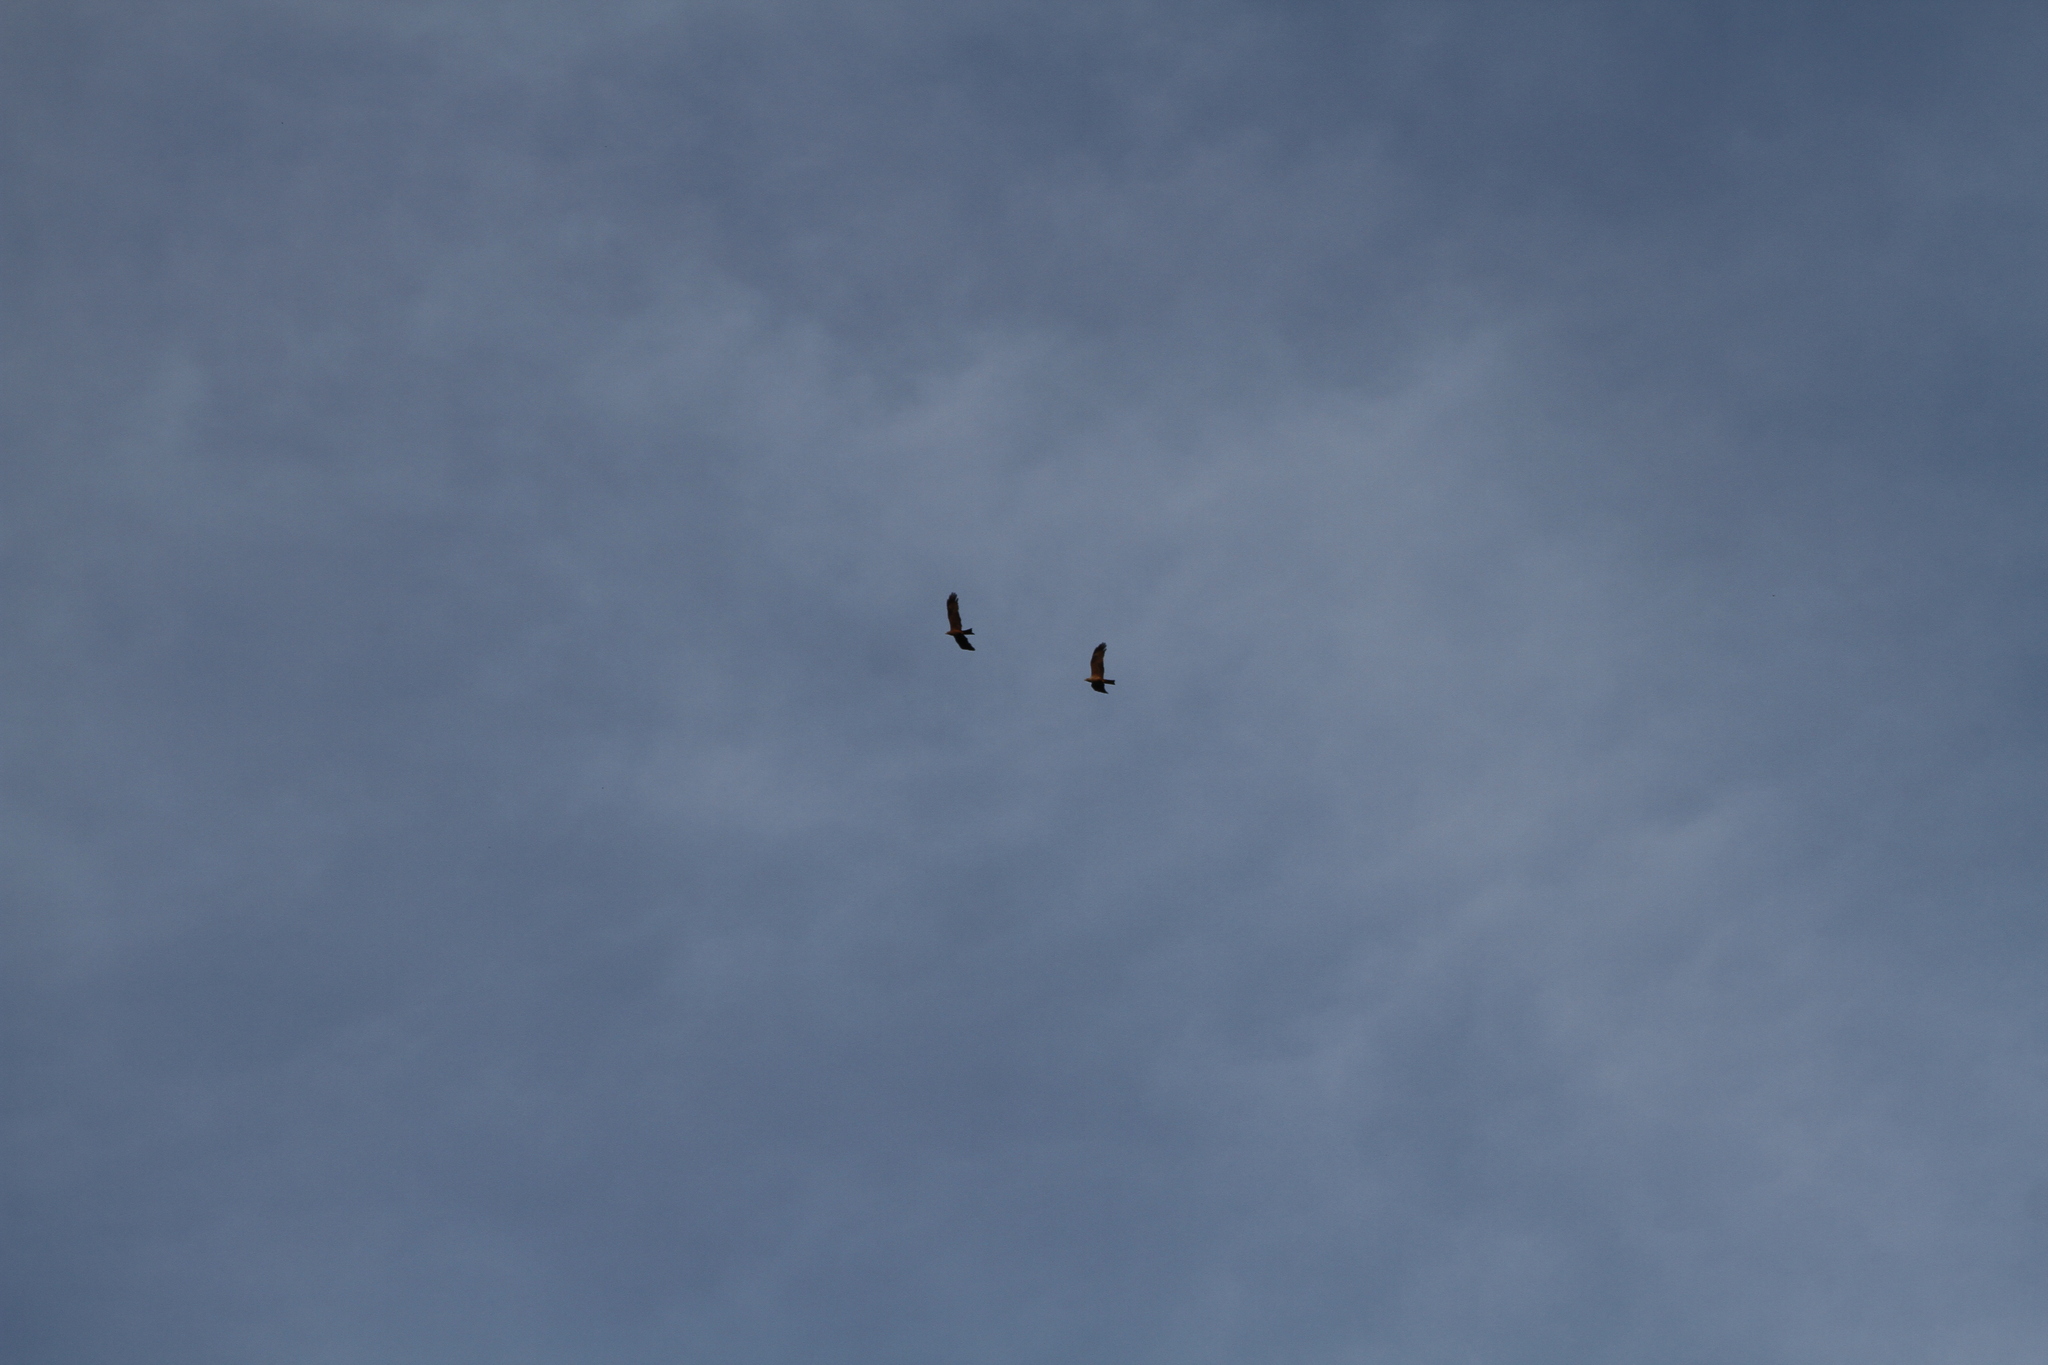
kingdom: Animalia
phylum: Chordata
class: Aves
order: Accipitriformes
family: Accipitridae
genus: Milvus
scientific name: Milvus migrans
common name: Black kite
